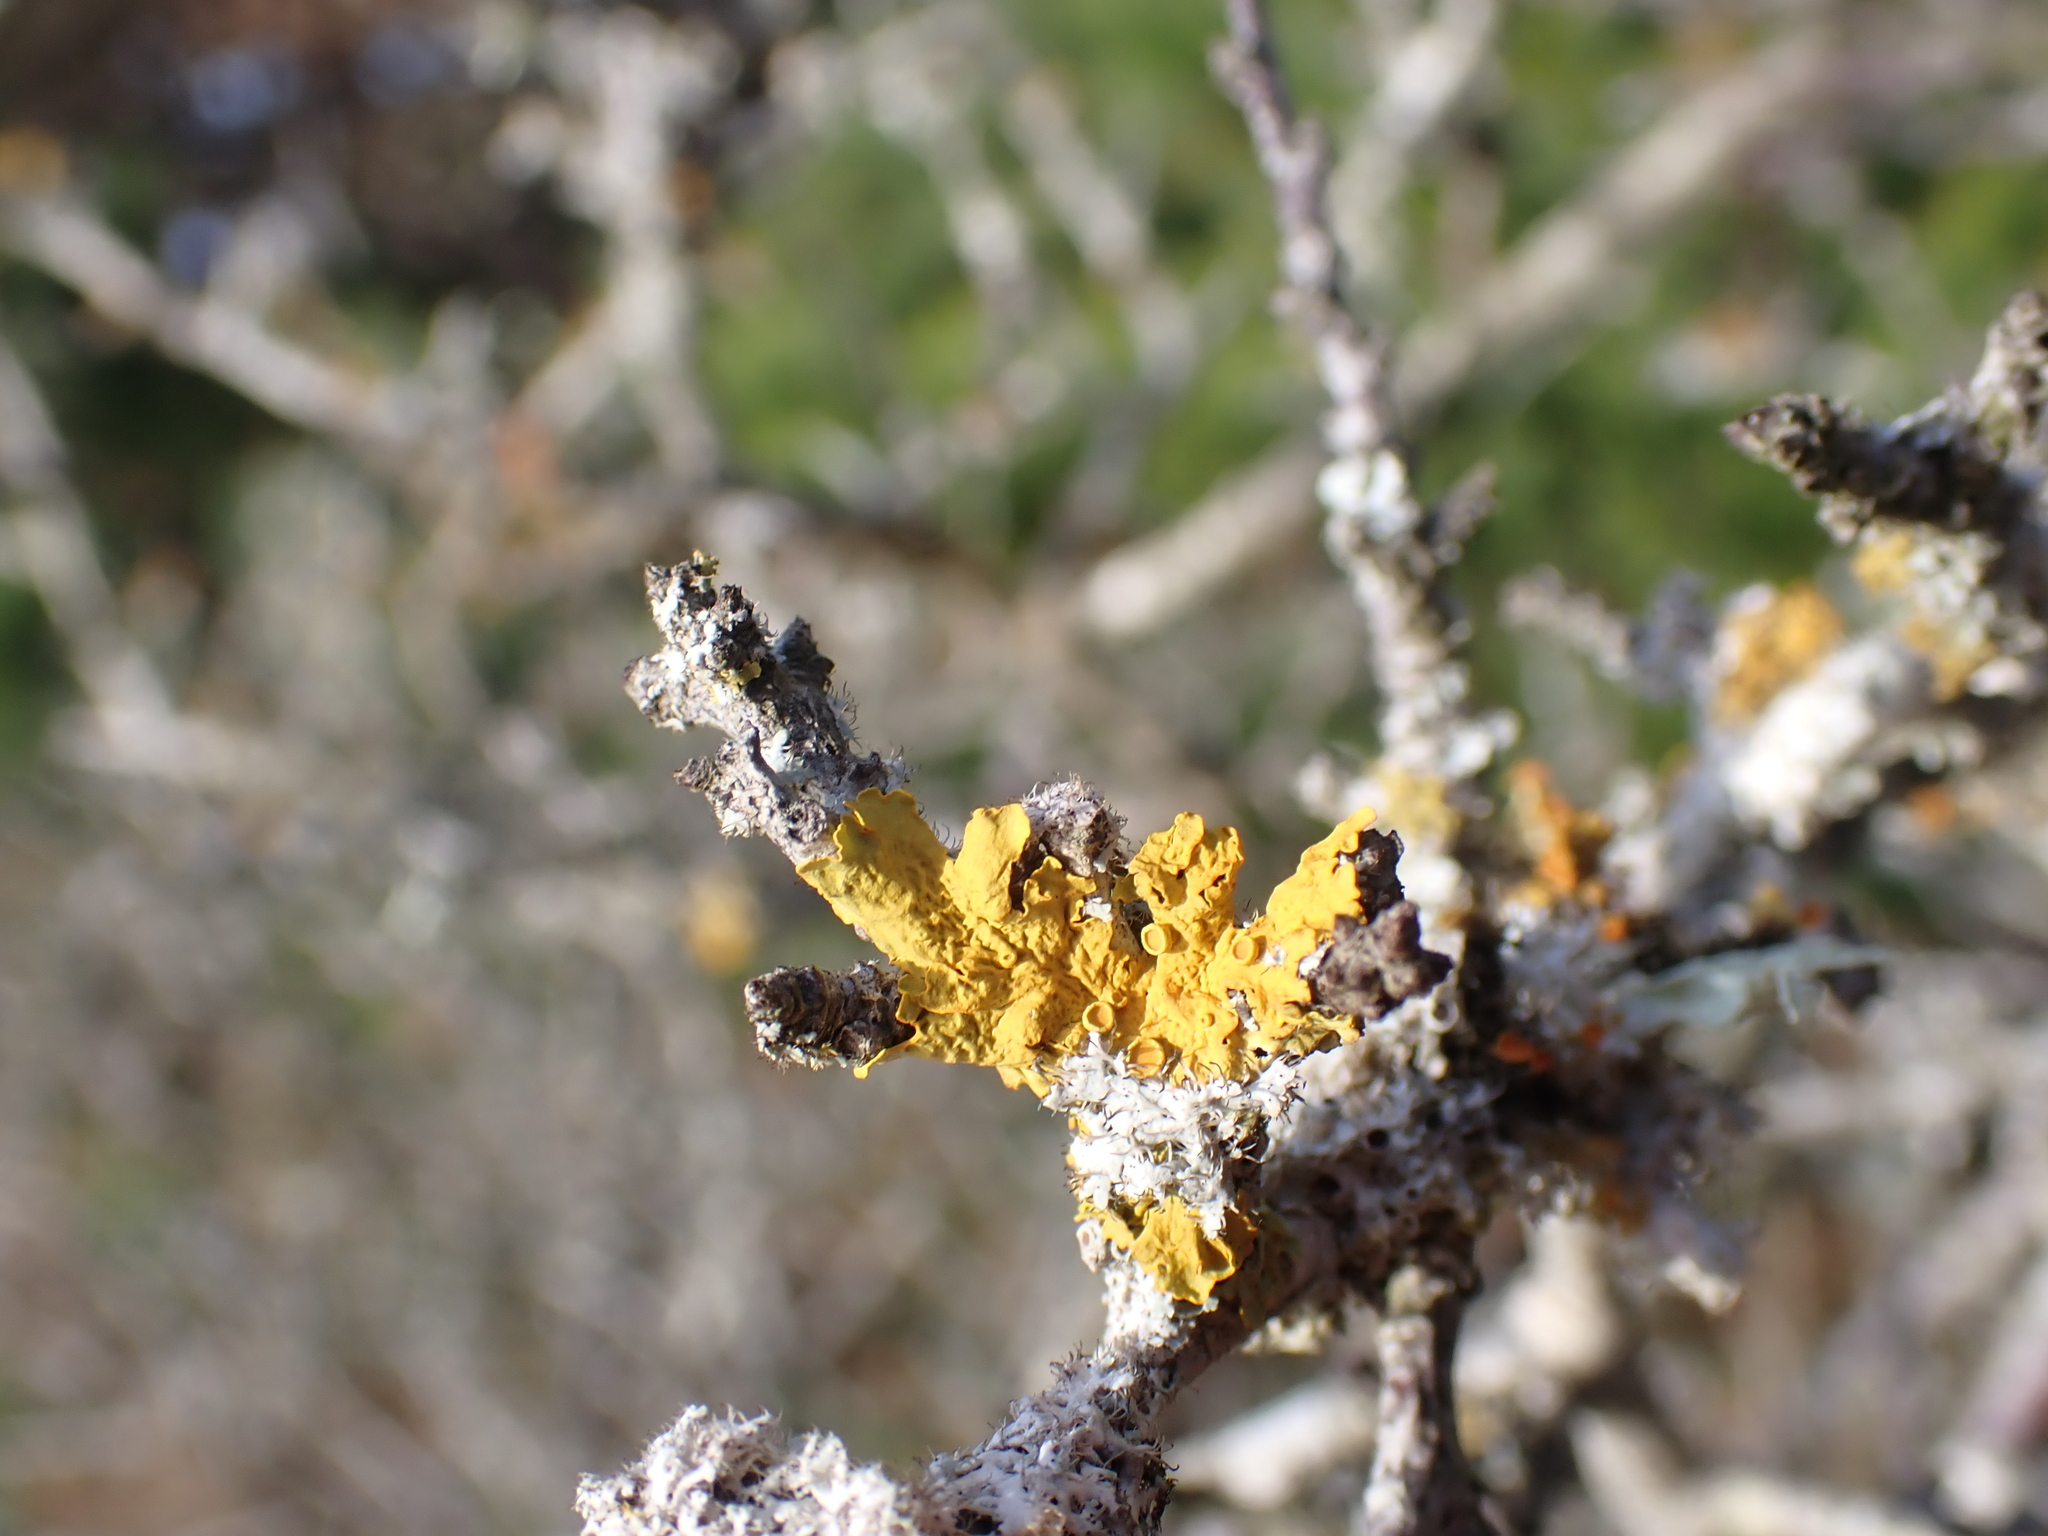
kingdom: Fungi
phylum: Ascomycota
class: Lecanoromycetes
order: Teloschistales
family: Teloschistaceae
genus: Xanthoria
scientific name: Xanthoria parietina
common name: Common orange lichen
